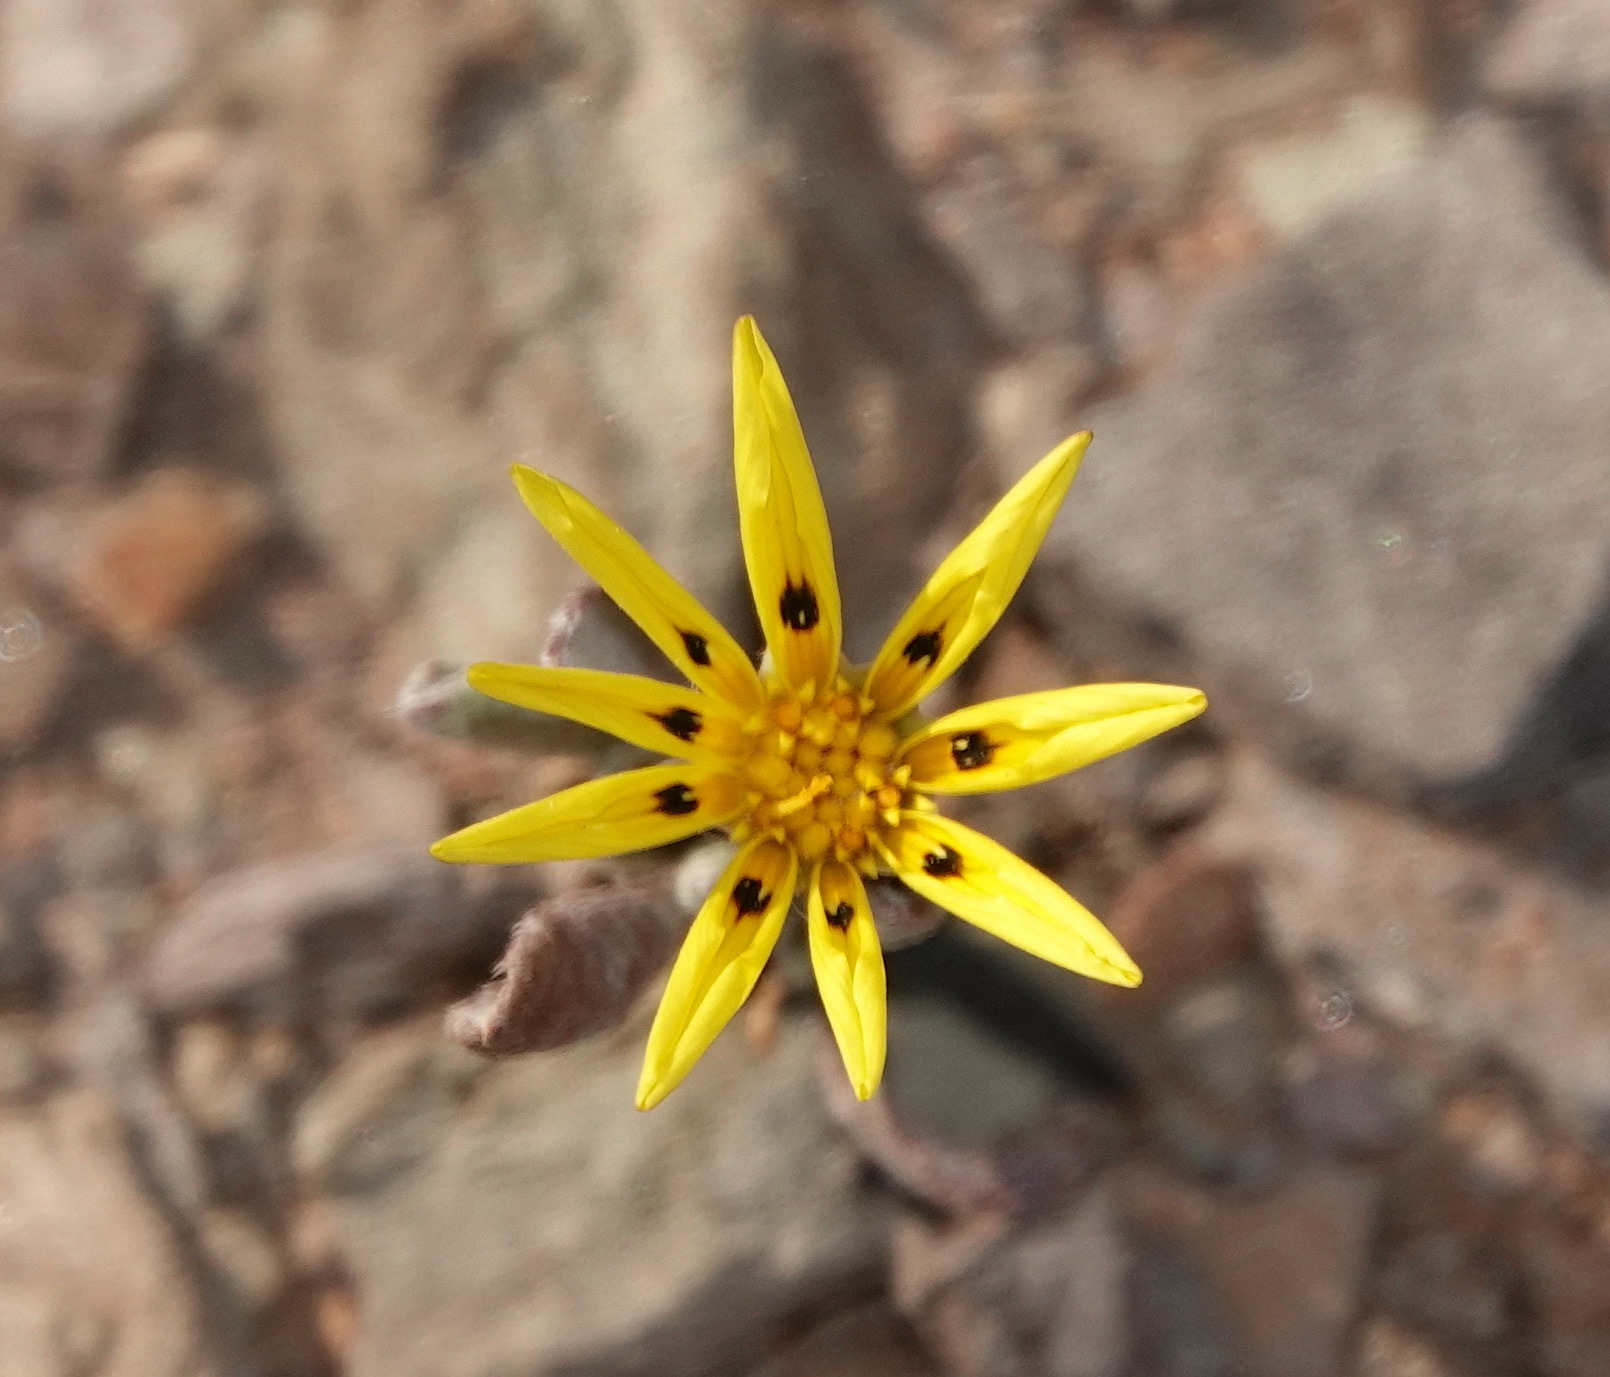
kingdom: Plantae
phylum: Tracheophyta
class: Magnoliopsida
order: Asterales
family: Asteraceae
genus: Gazania
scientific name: Gazania lichtensteinii
